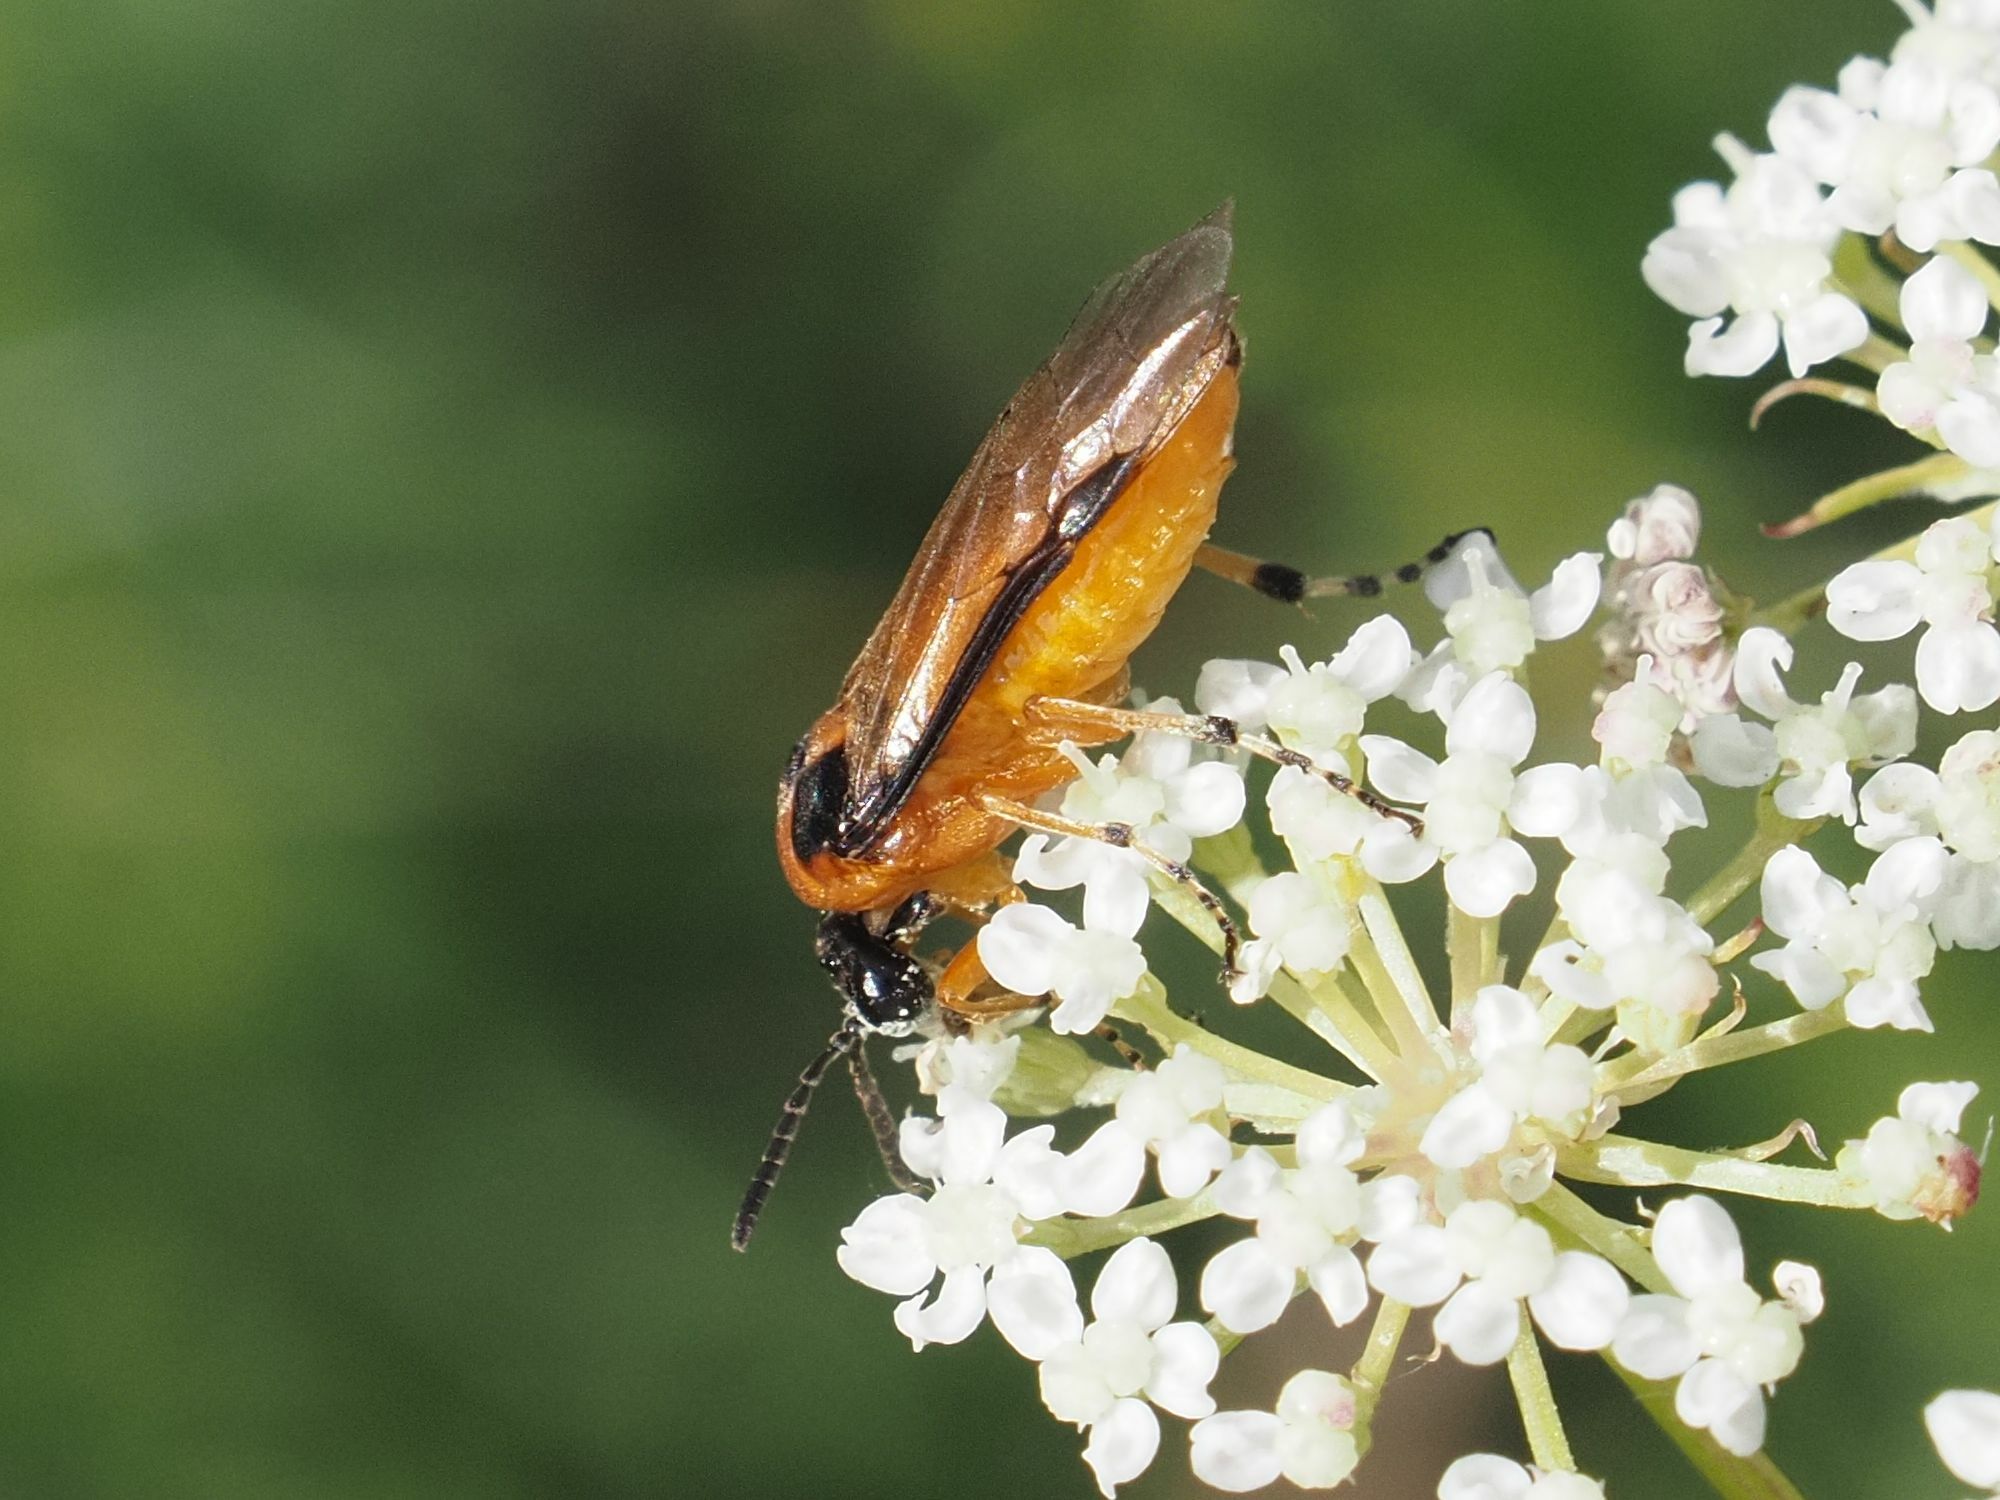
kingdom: Animalia
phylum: Arthropoda
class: Insecta
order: Hymenoptera
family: Tenthredinidae
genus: Athalia
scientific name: Athalia rosae
